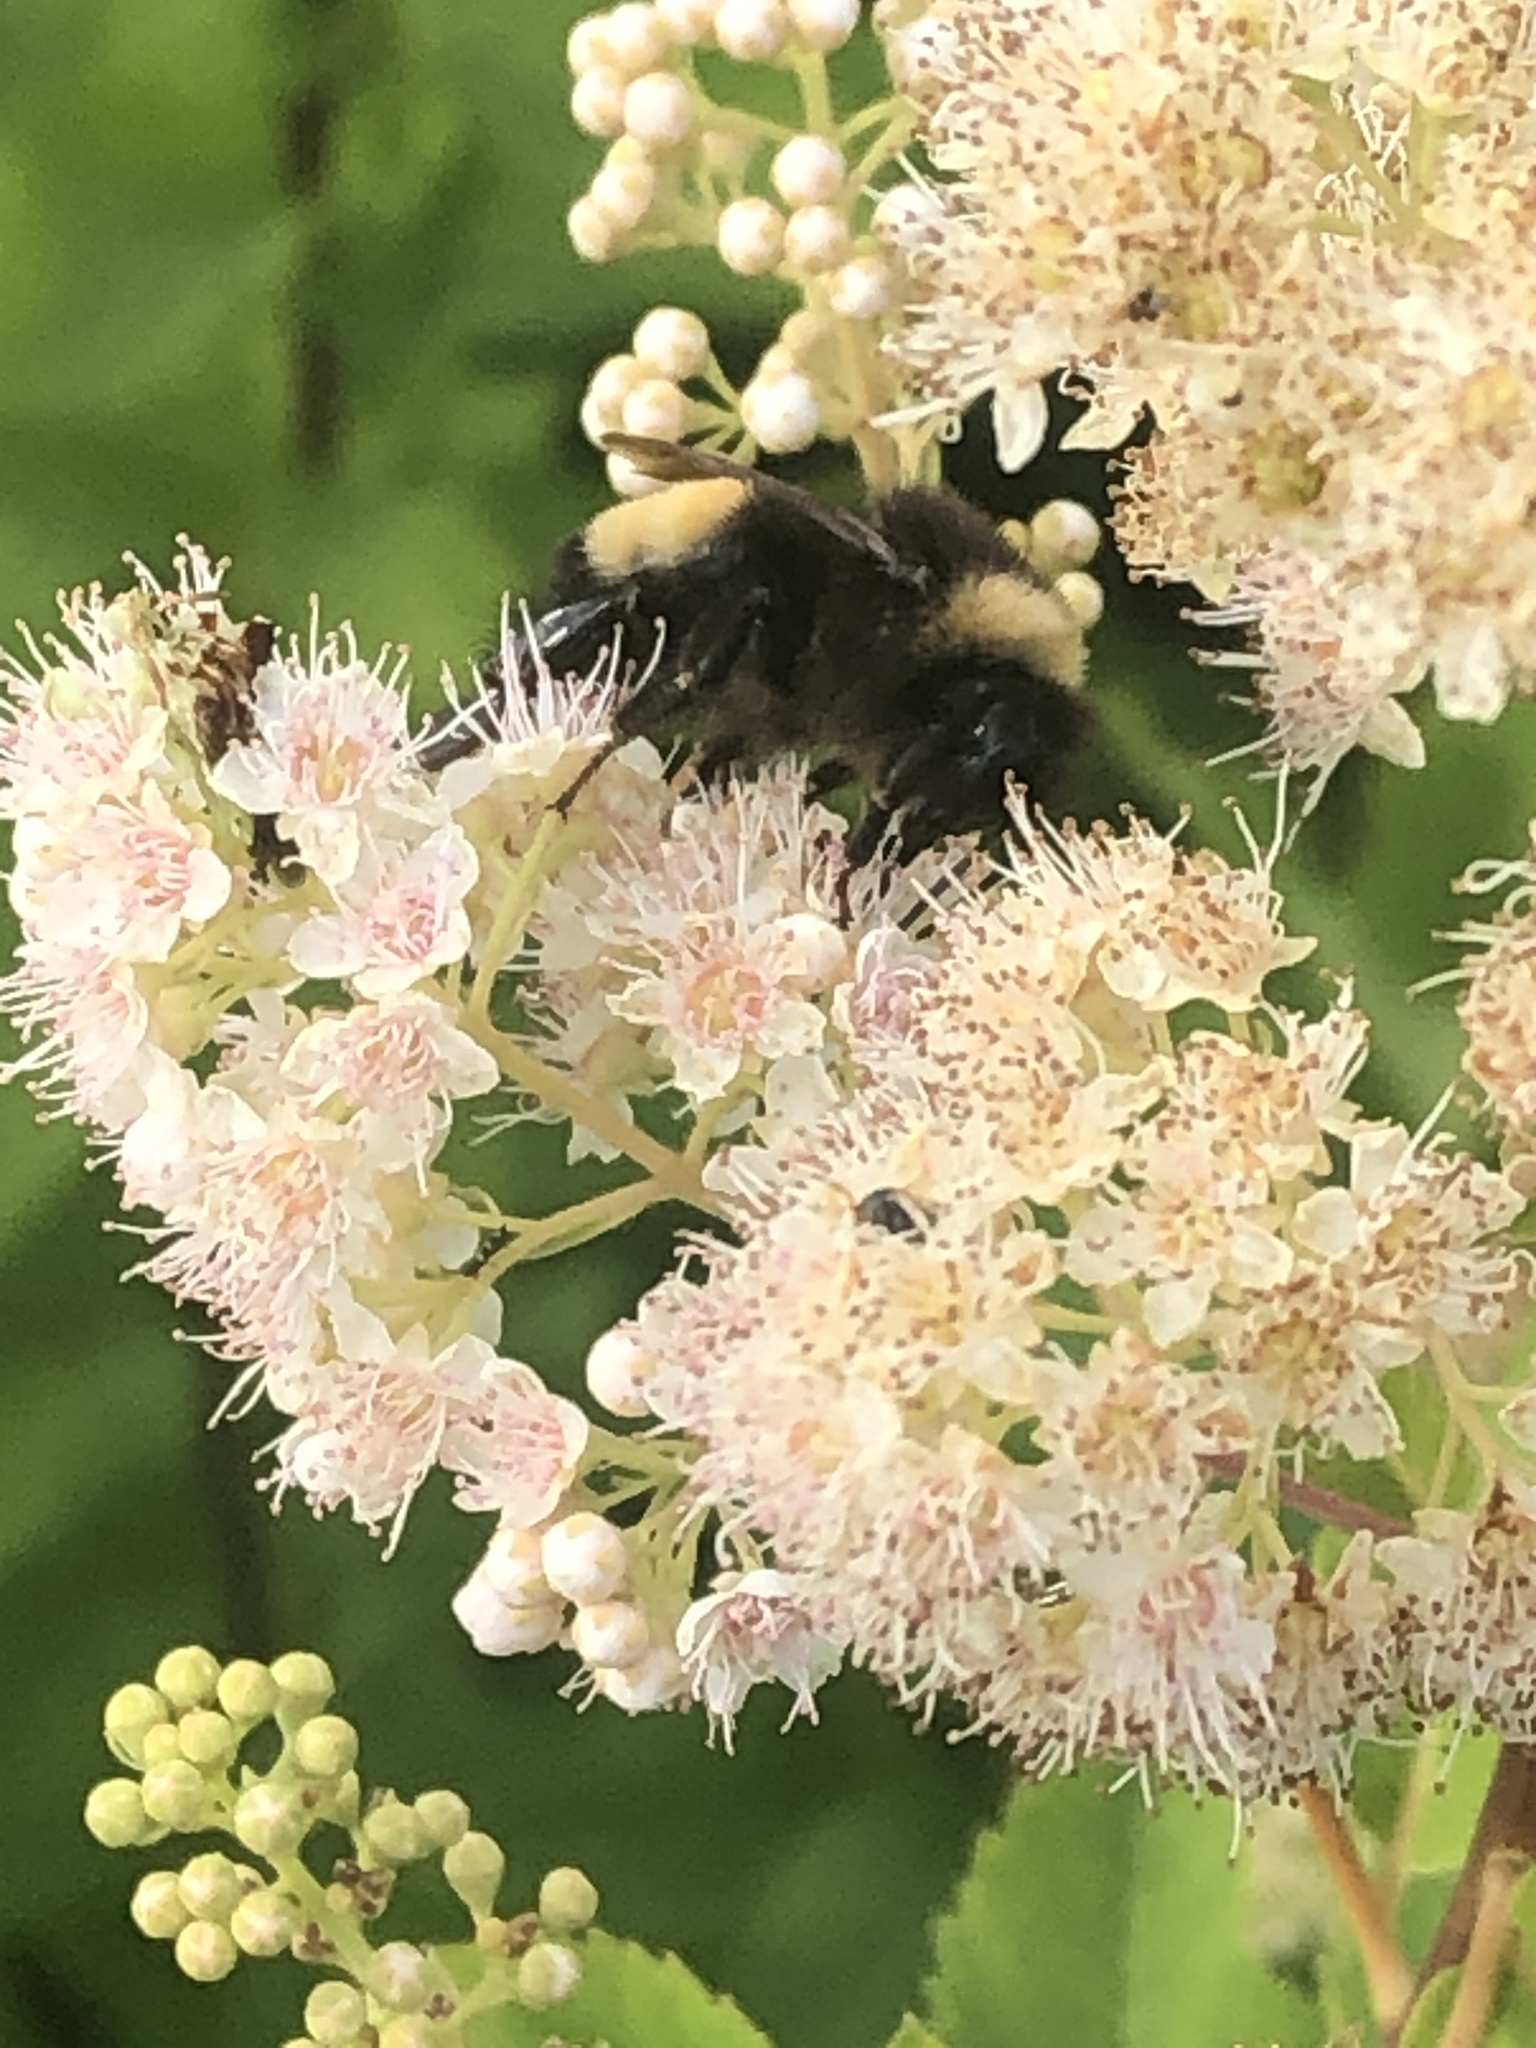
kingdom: Animalia
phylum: Arthropoda
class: Insecta
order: Hymenoptera
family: Apidae
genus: Bombus
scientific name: Bombus terricola
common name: Yellow-banded bumble bee
